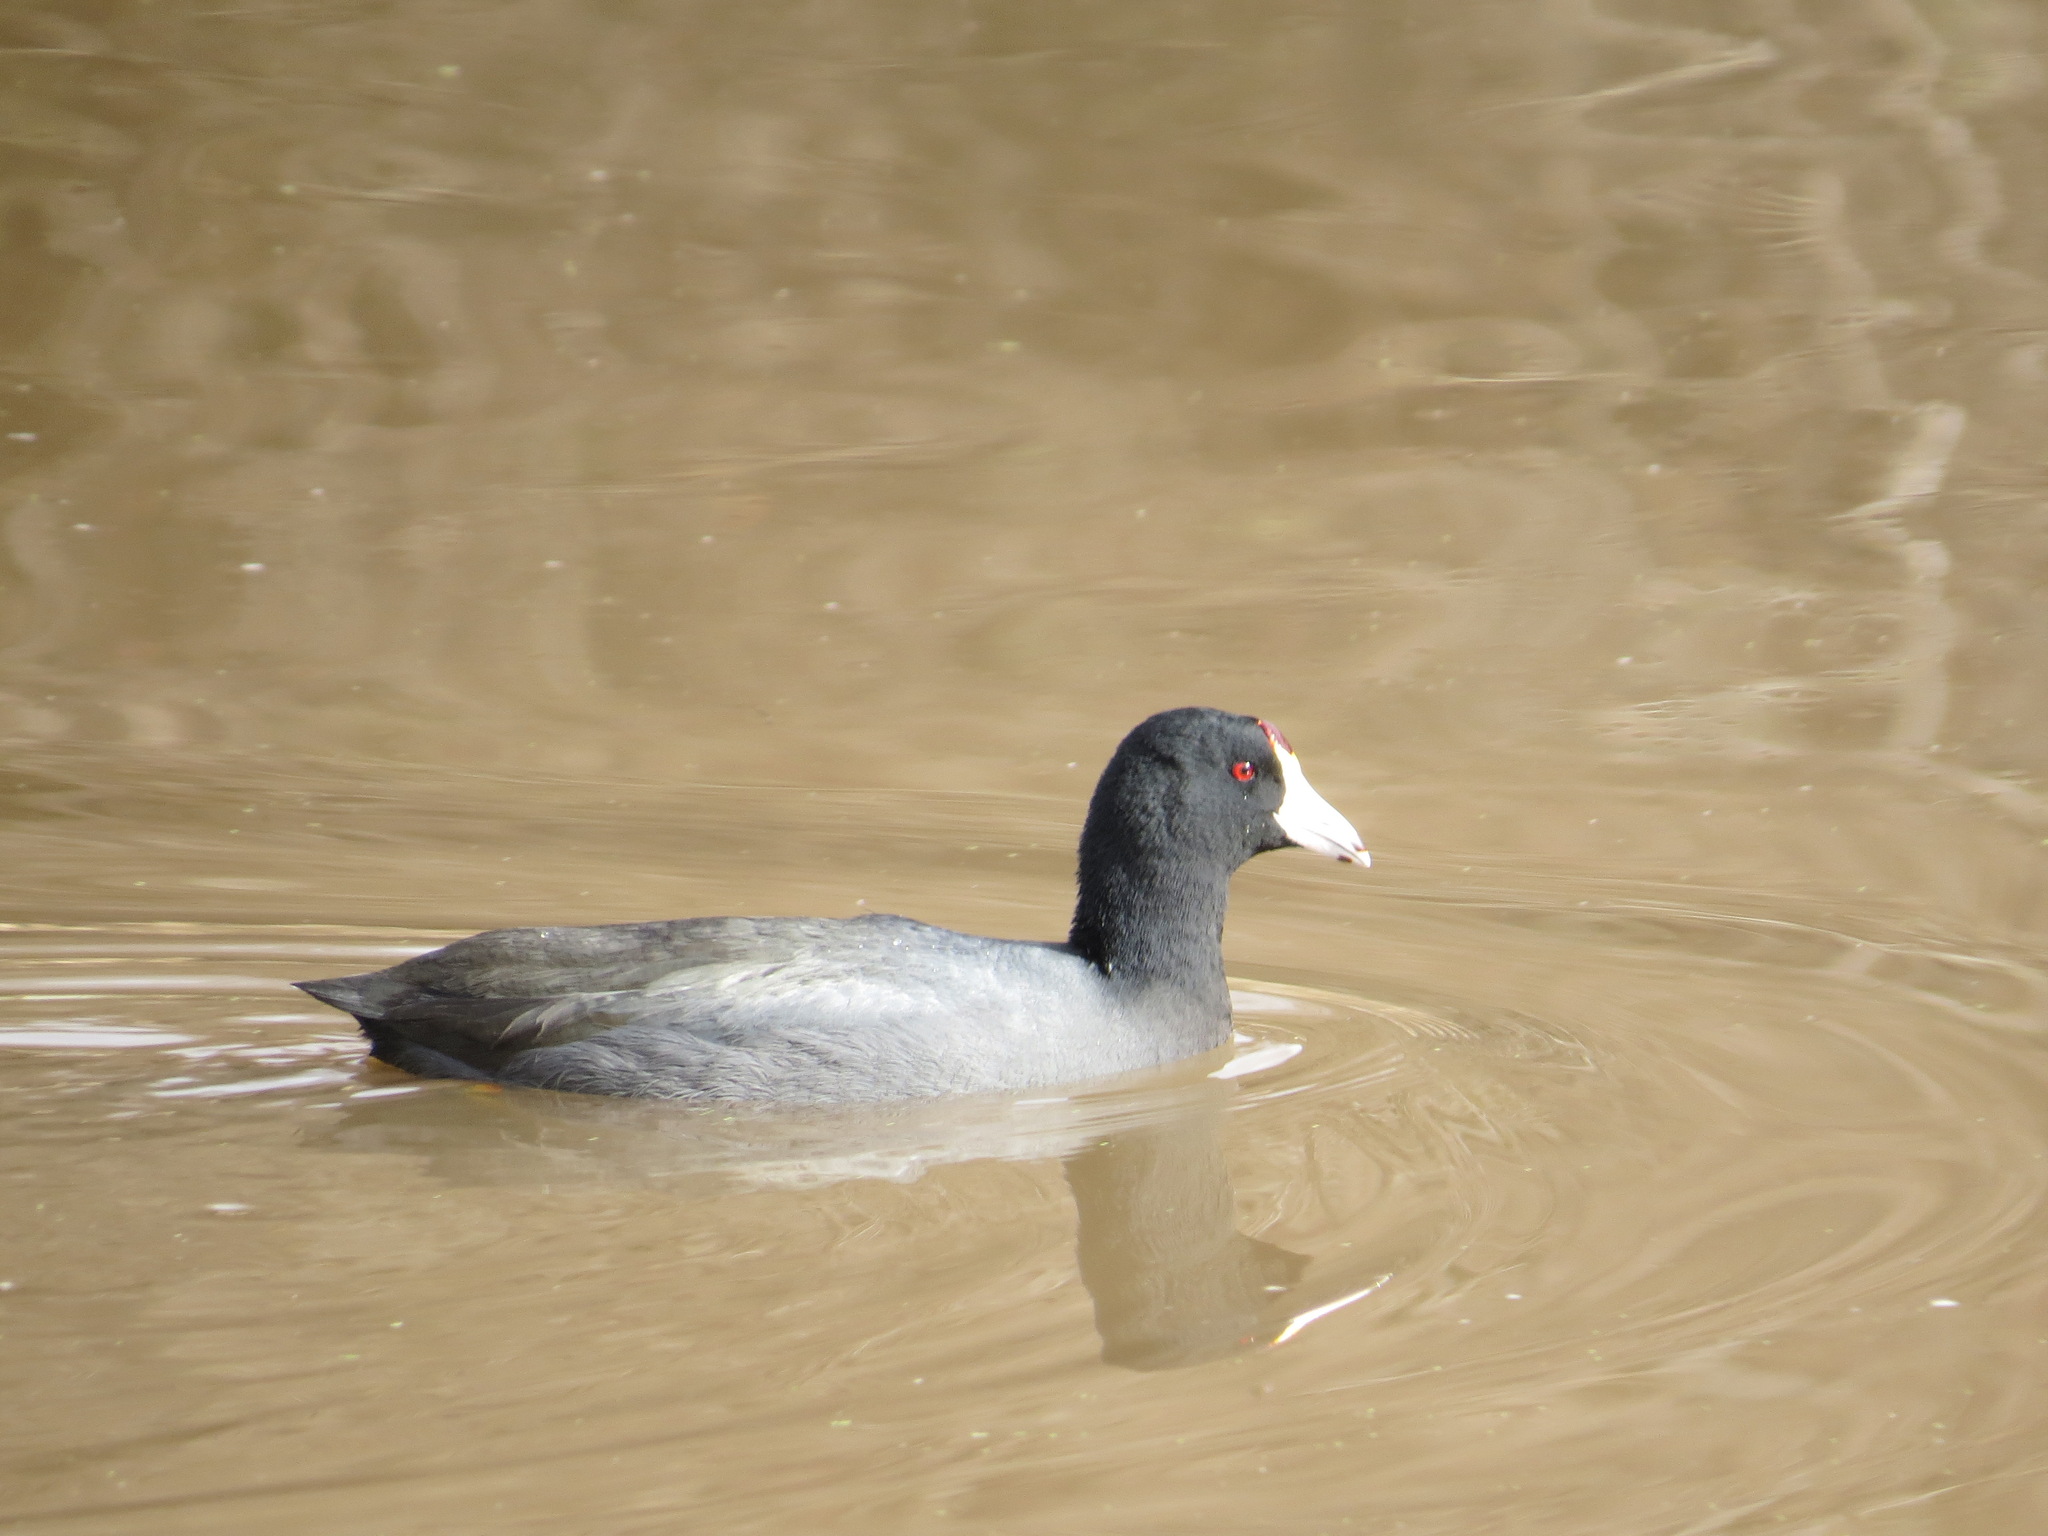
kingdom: Animalia
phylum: Chordata
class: Aves
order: Gruiformes
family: Rallidae
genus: Fulica
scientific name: Fulica americana
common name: American coot
